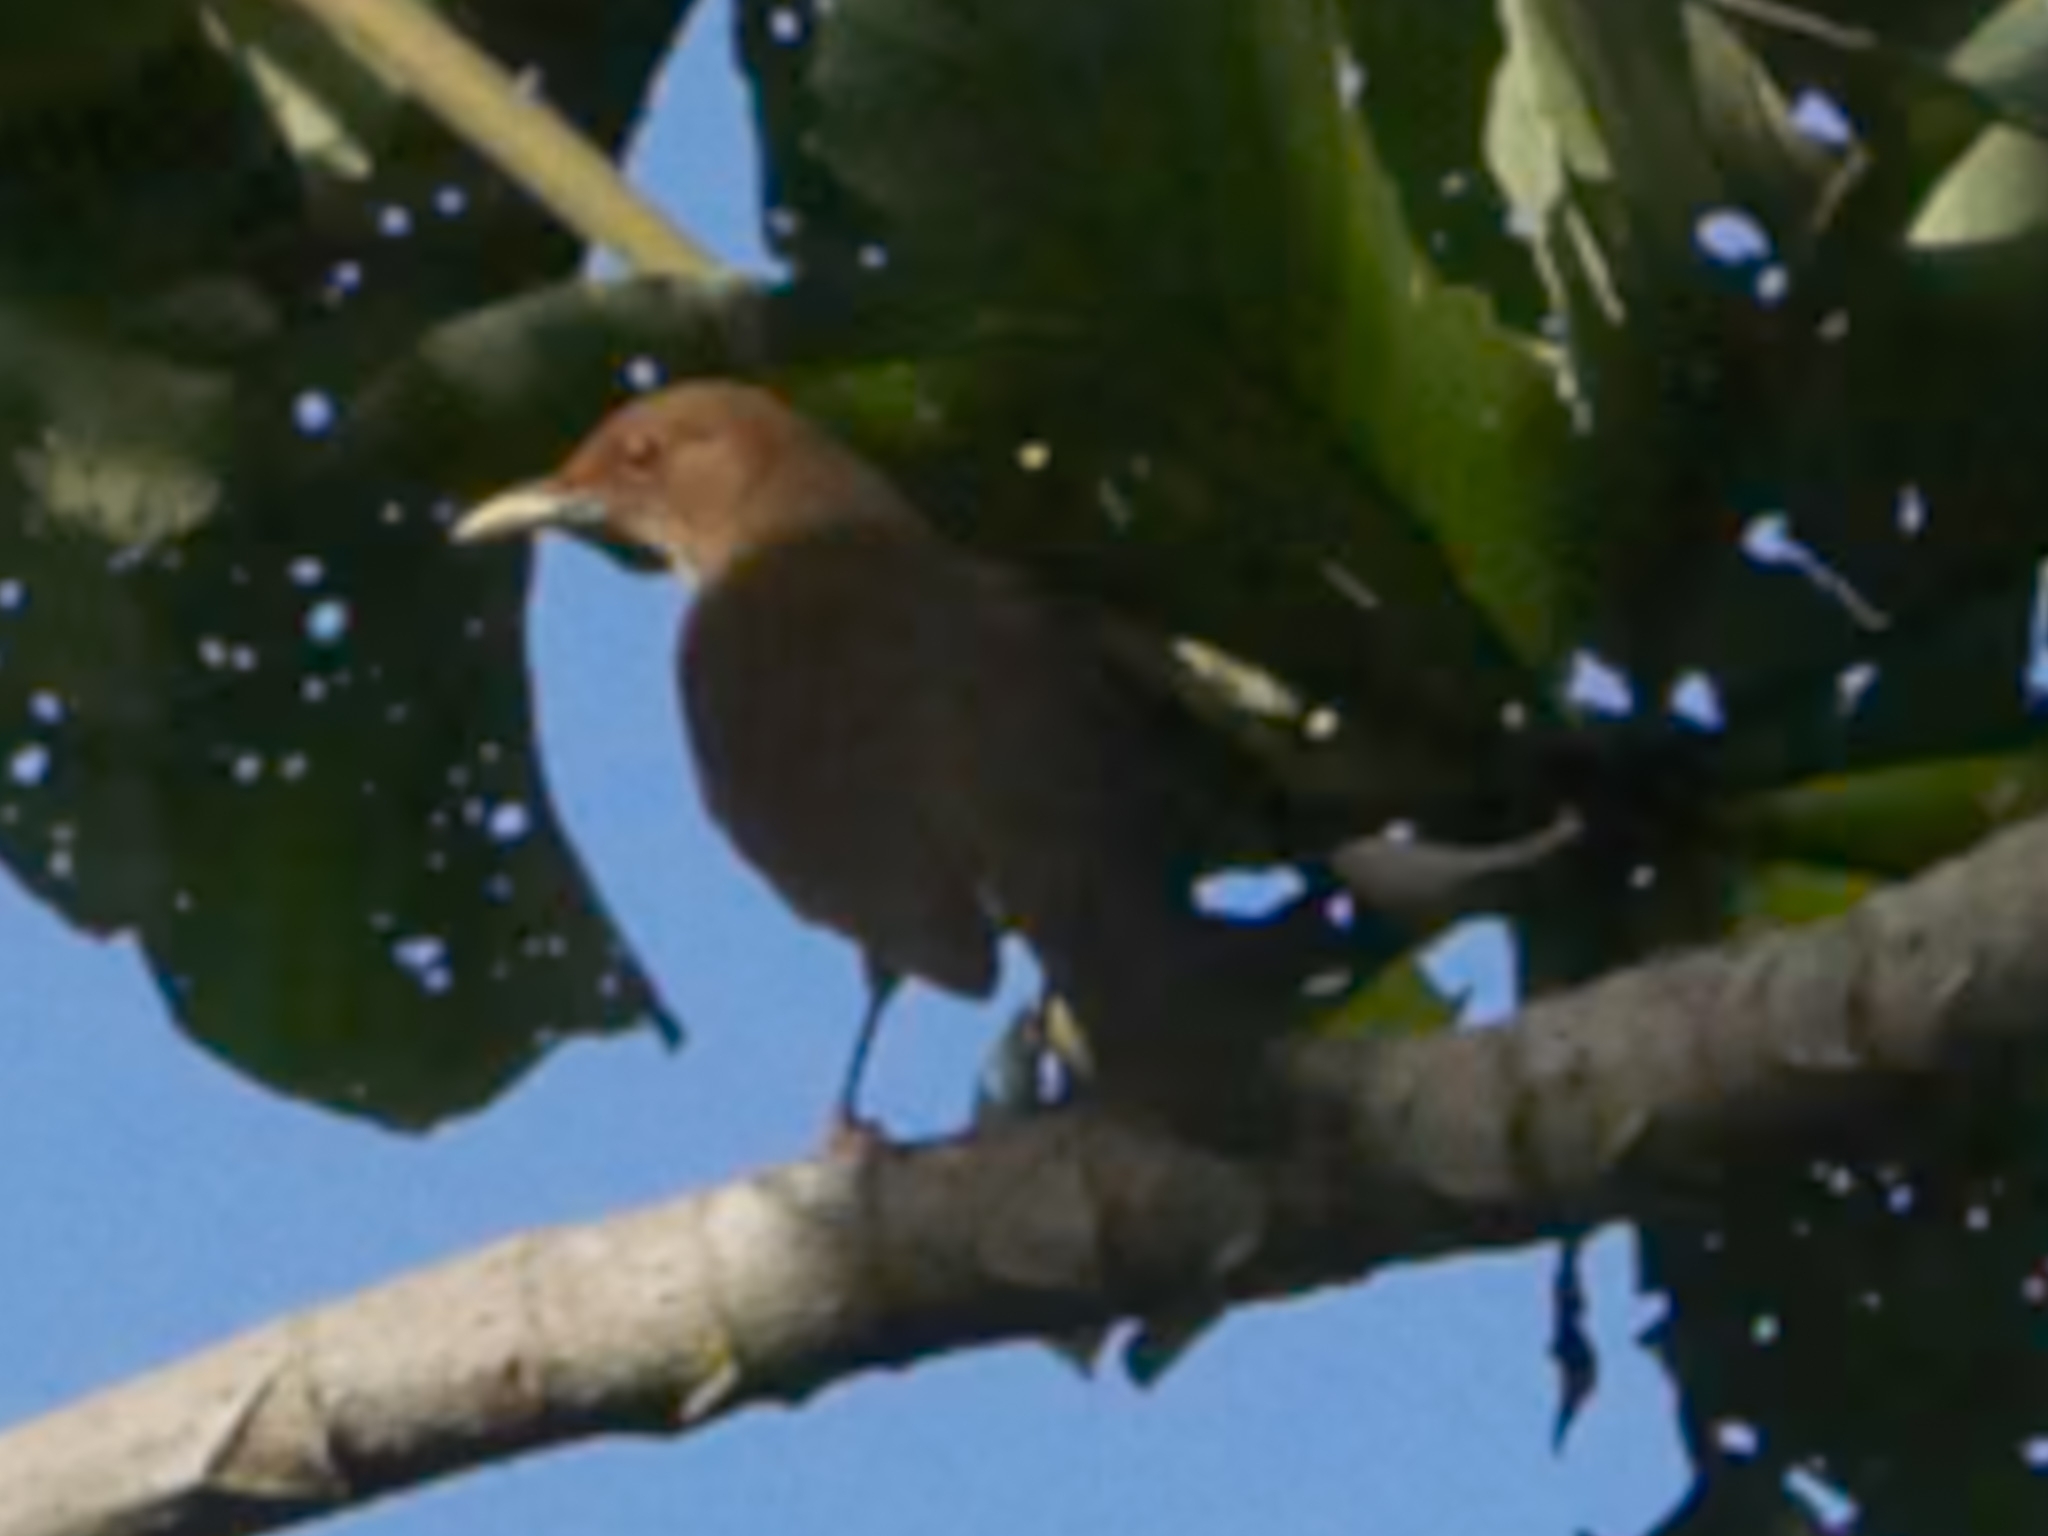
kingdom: Animalia
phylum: Chordata
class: Aves
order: Passeriformes
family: Turdidae
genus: Turdus
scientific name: Turdus grayi
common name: Clay-colored thrush
